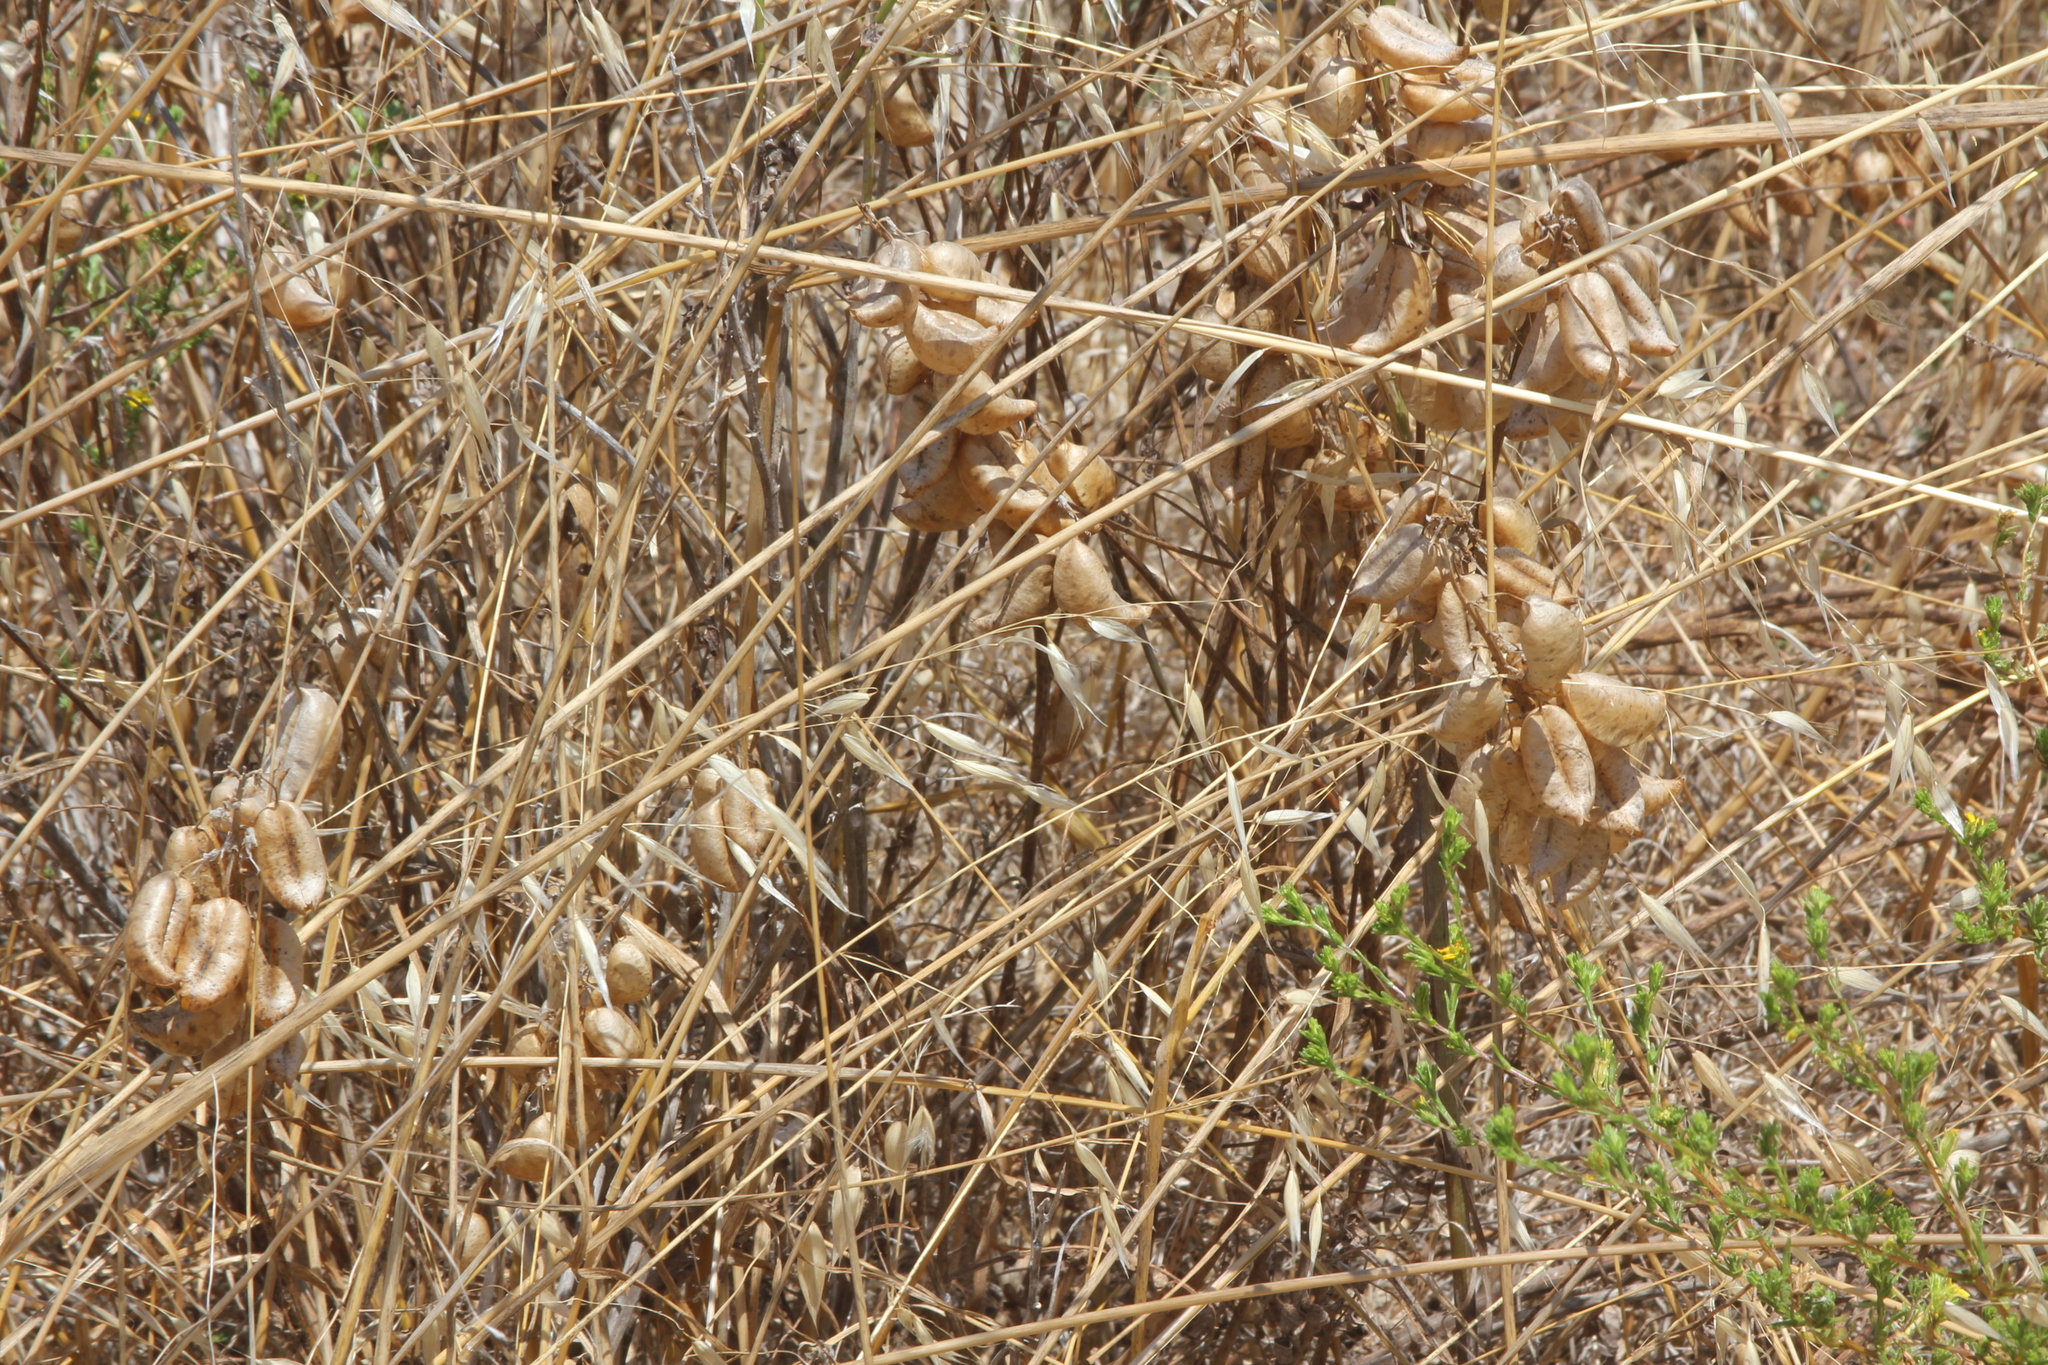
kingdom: Plantae
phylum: Tracheophyta
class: Magnoliopsida
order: Fabales
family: Fabaceae
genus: Astragalus
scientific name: Astragalus trichopodus
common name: Santa barbara milk-vetch
